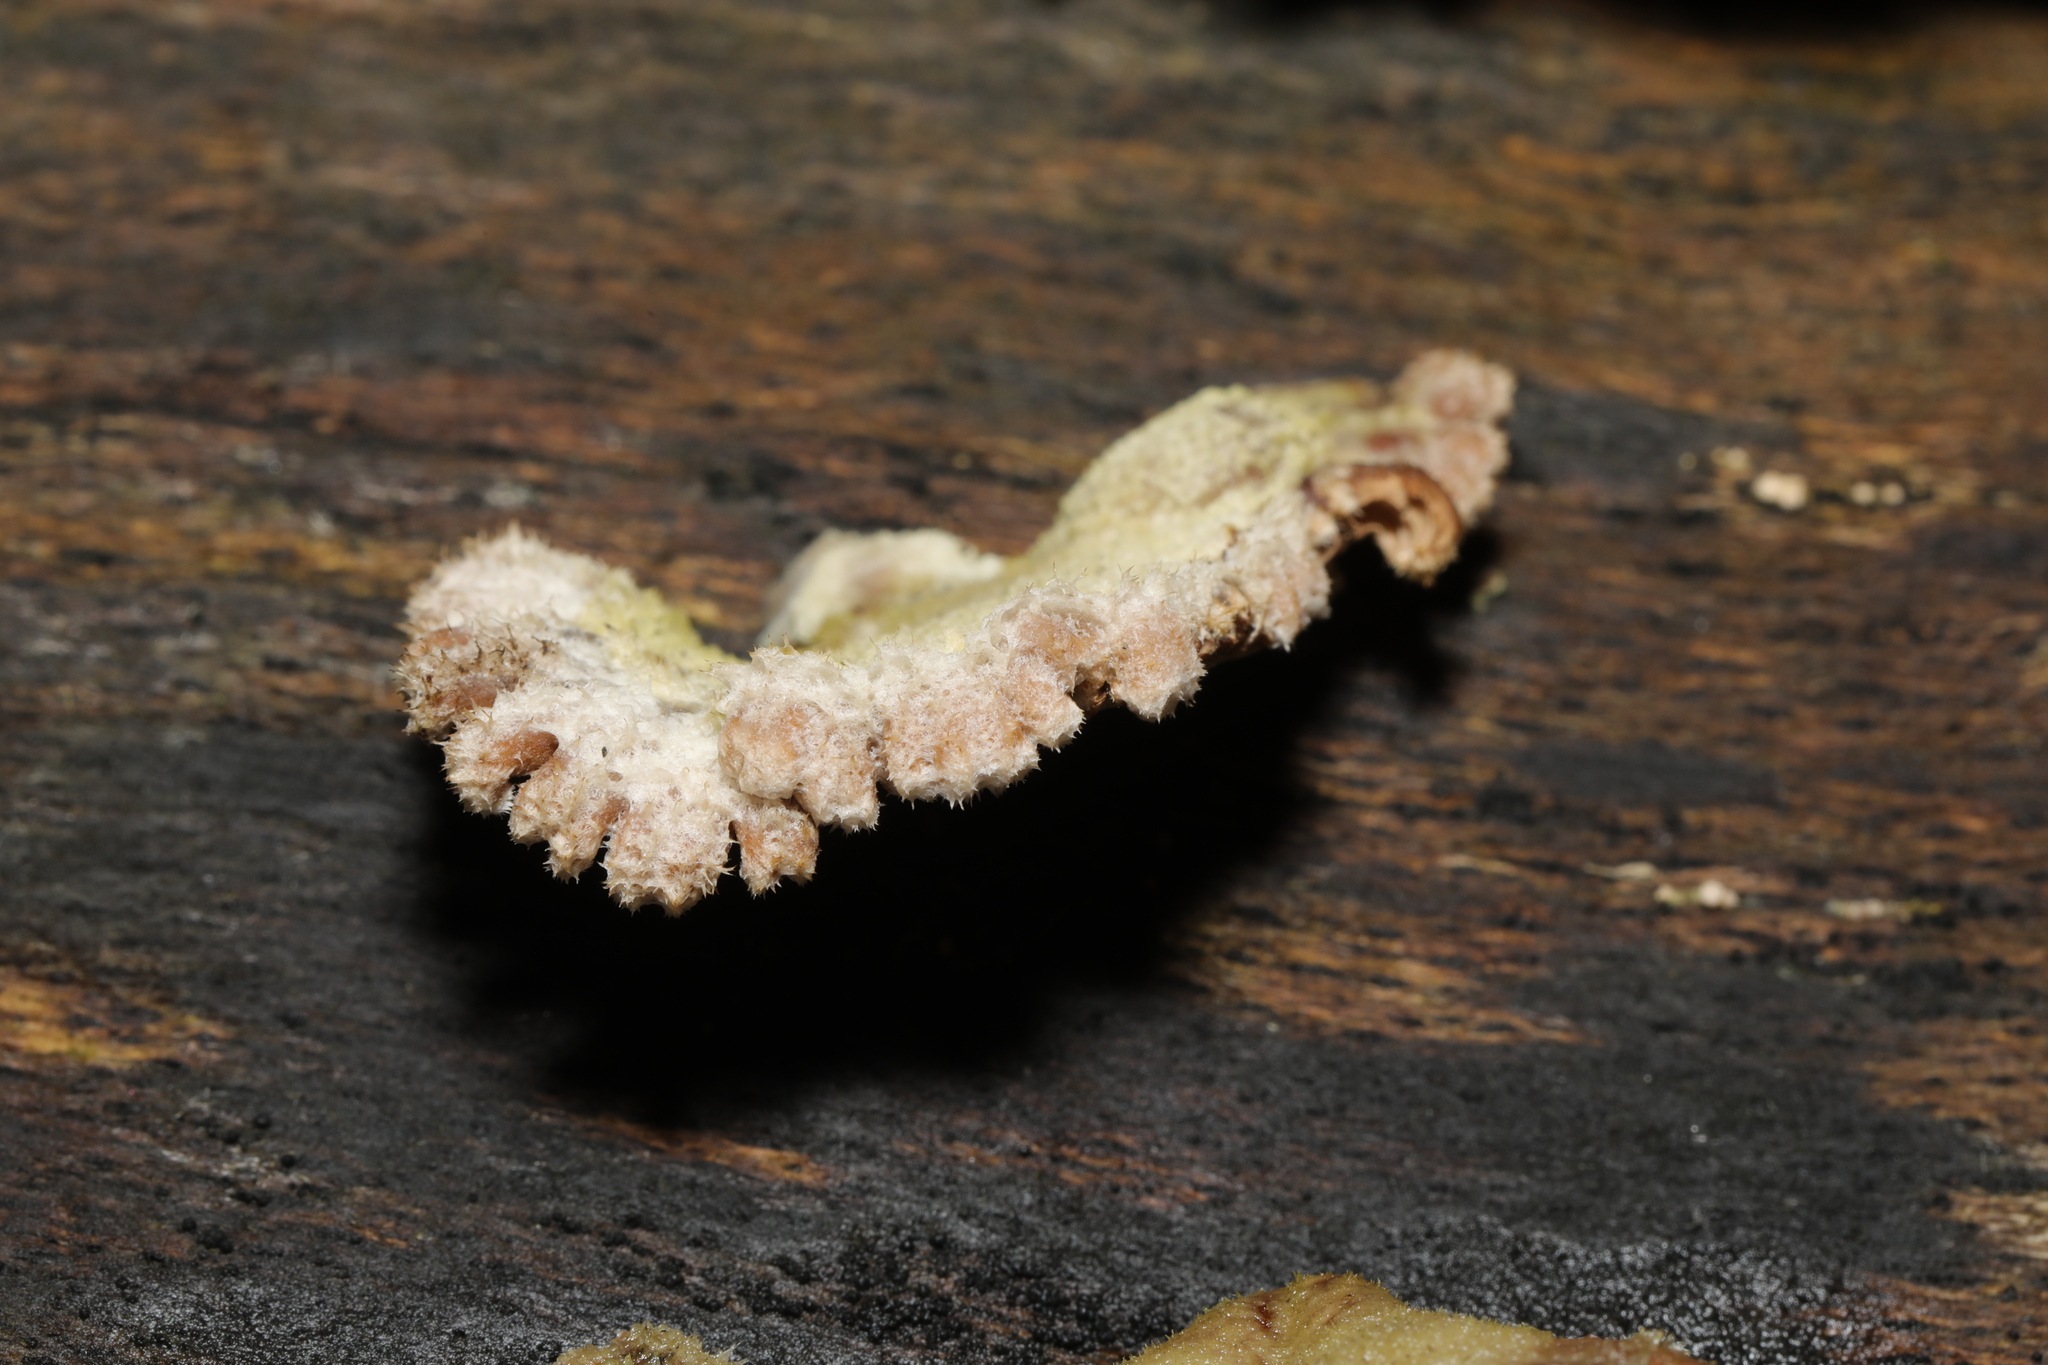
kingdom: Fungi
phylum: Basidiomycota
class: Agaricomycetes
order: Agaricales
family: Schizophyllaceae
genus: Schizophyllum
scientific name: Schizophyllum commune
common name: Common porecrust
